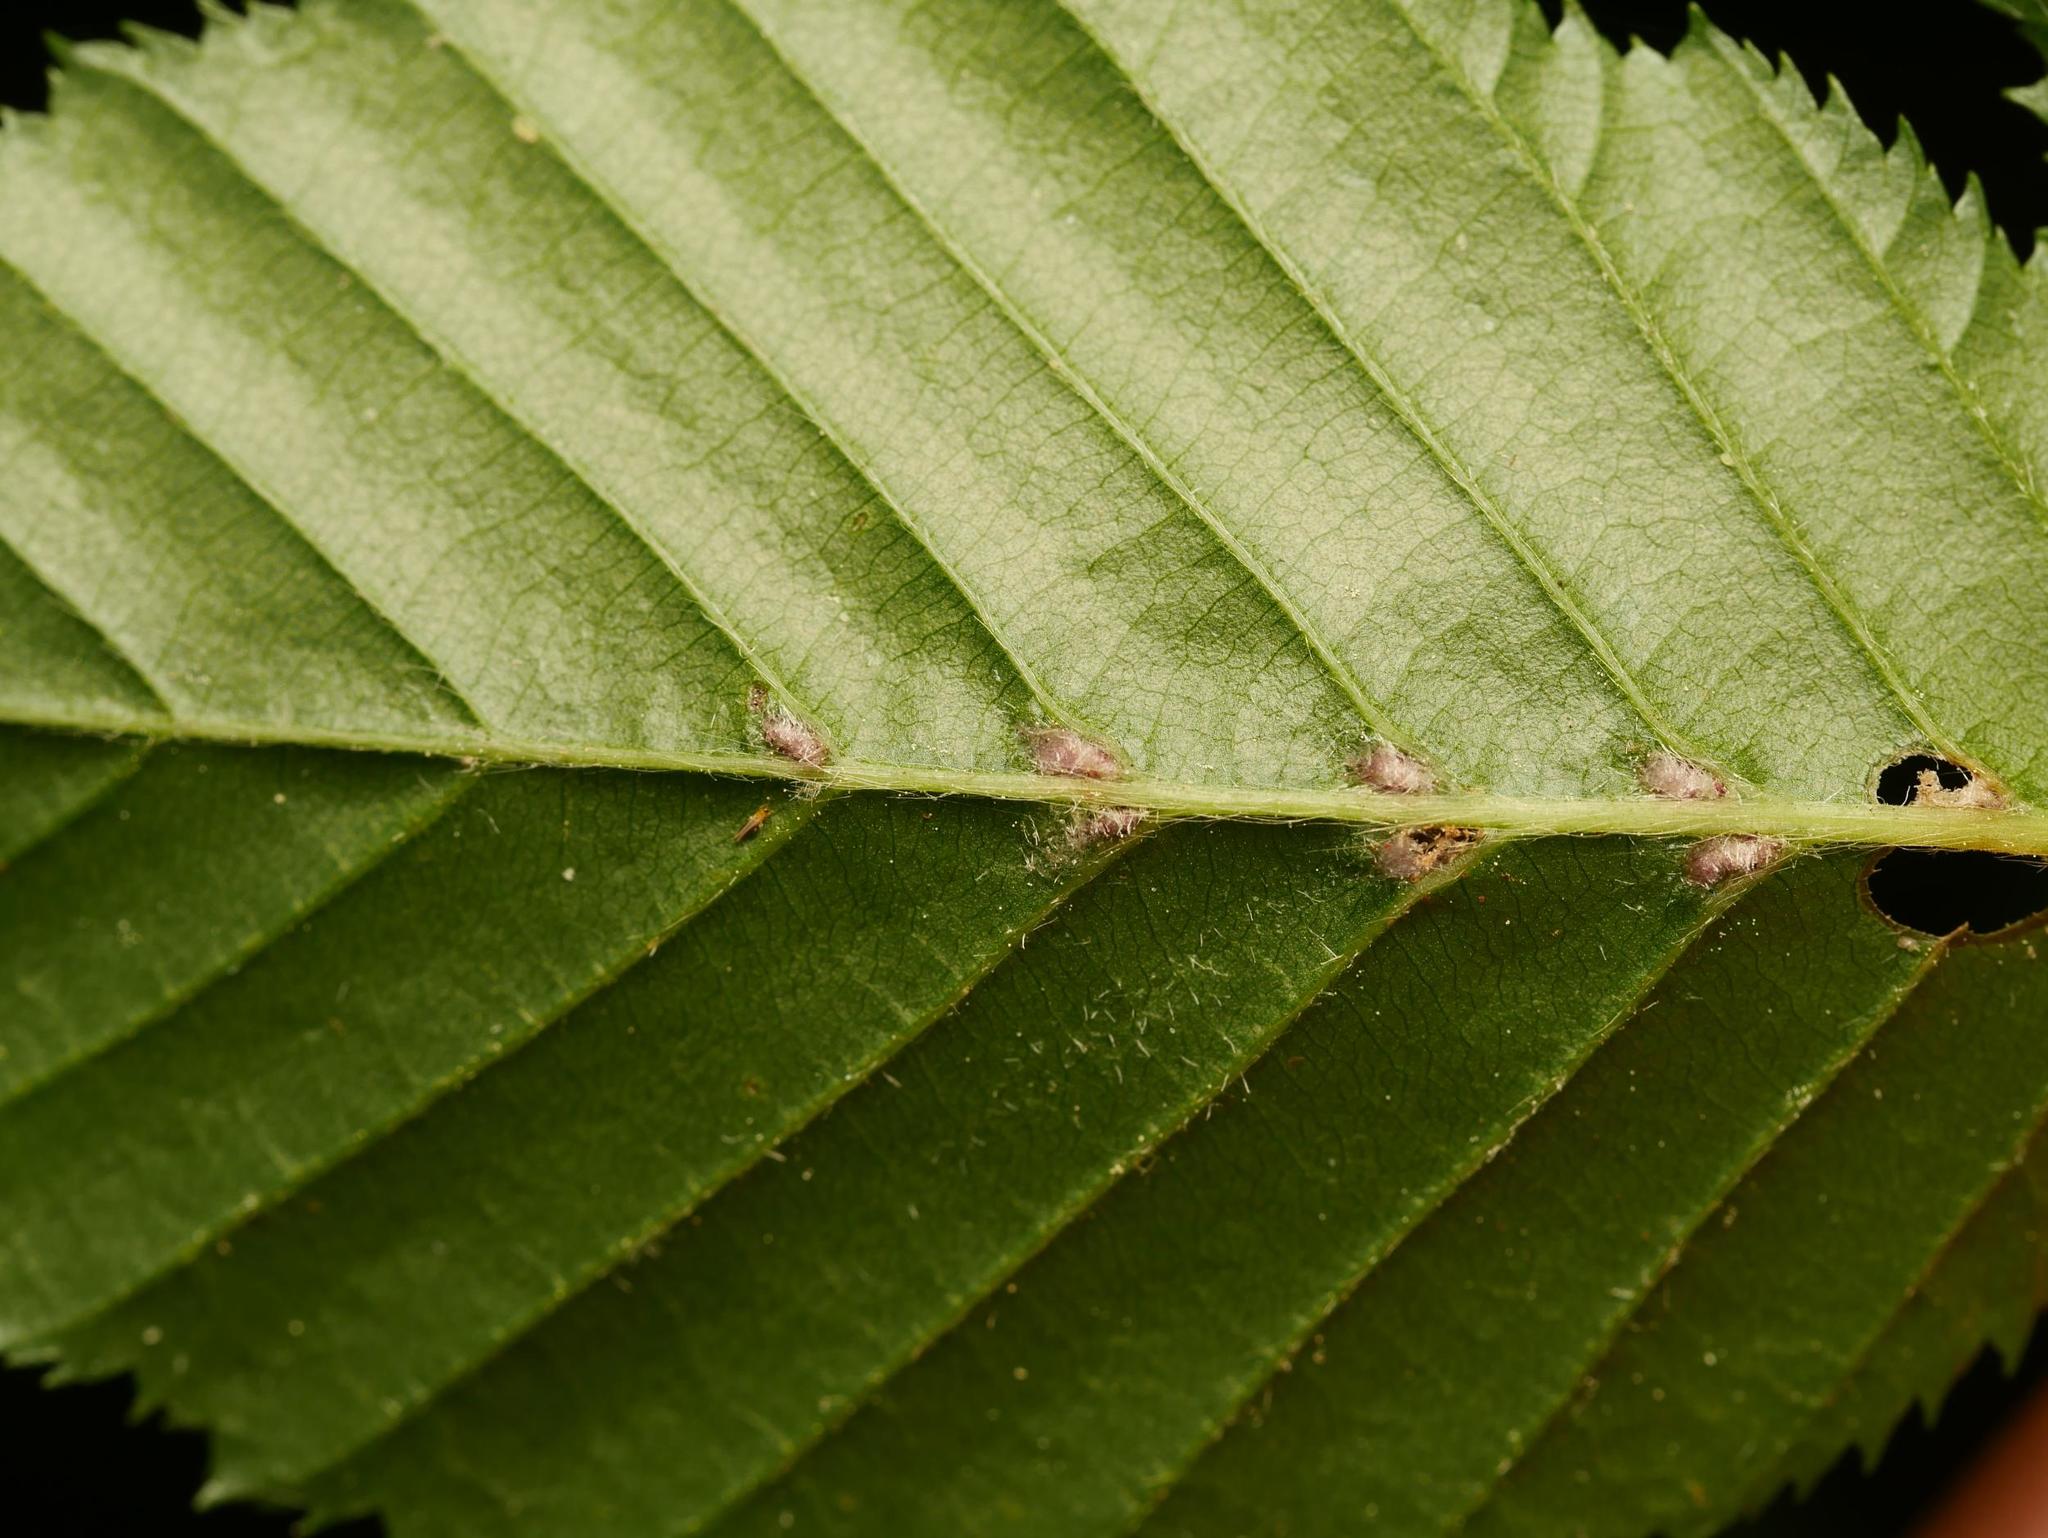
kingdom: Animalia
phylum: Arthropoda
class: Arachnida
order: Trombidiformes
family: Eriophyidae
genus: Aceria
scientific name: Aceria tenellus
